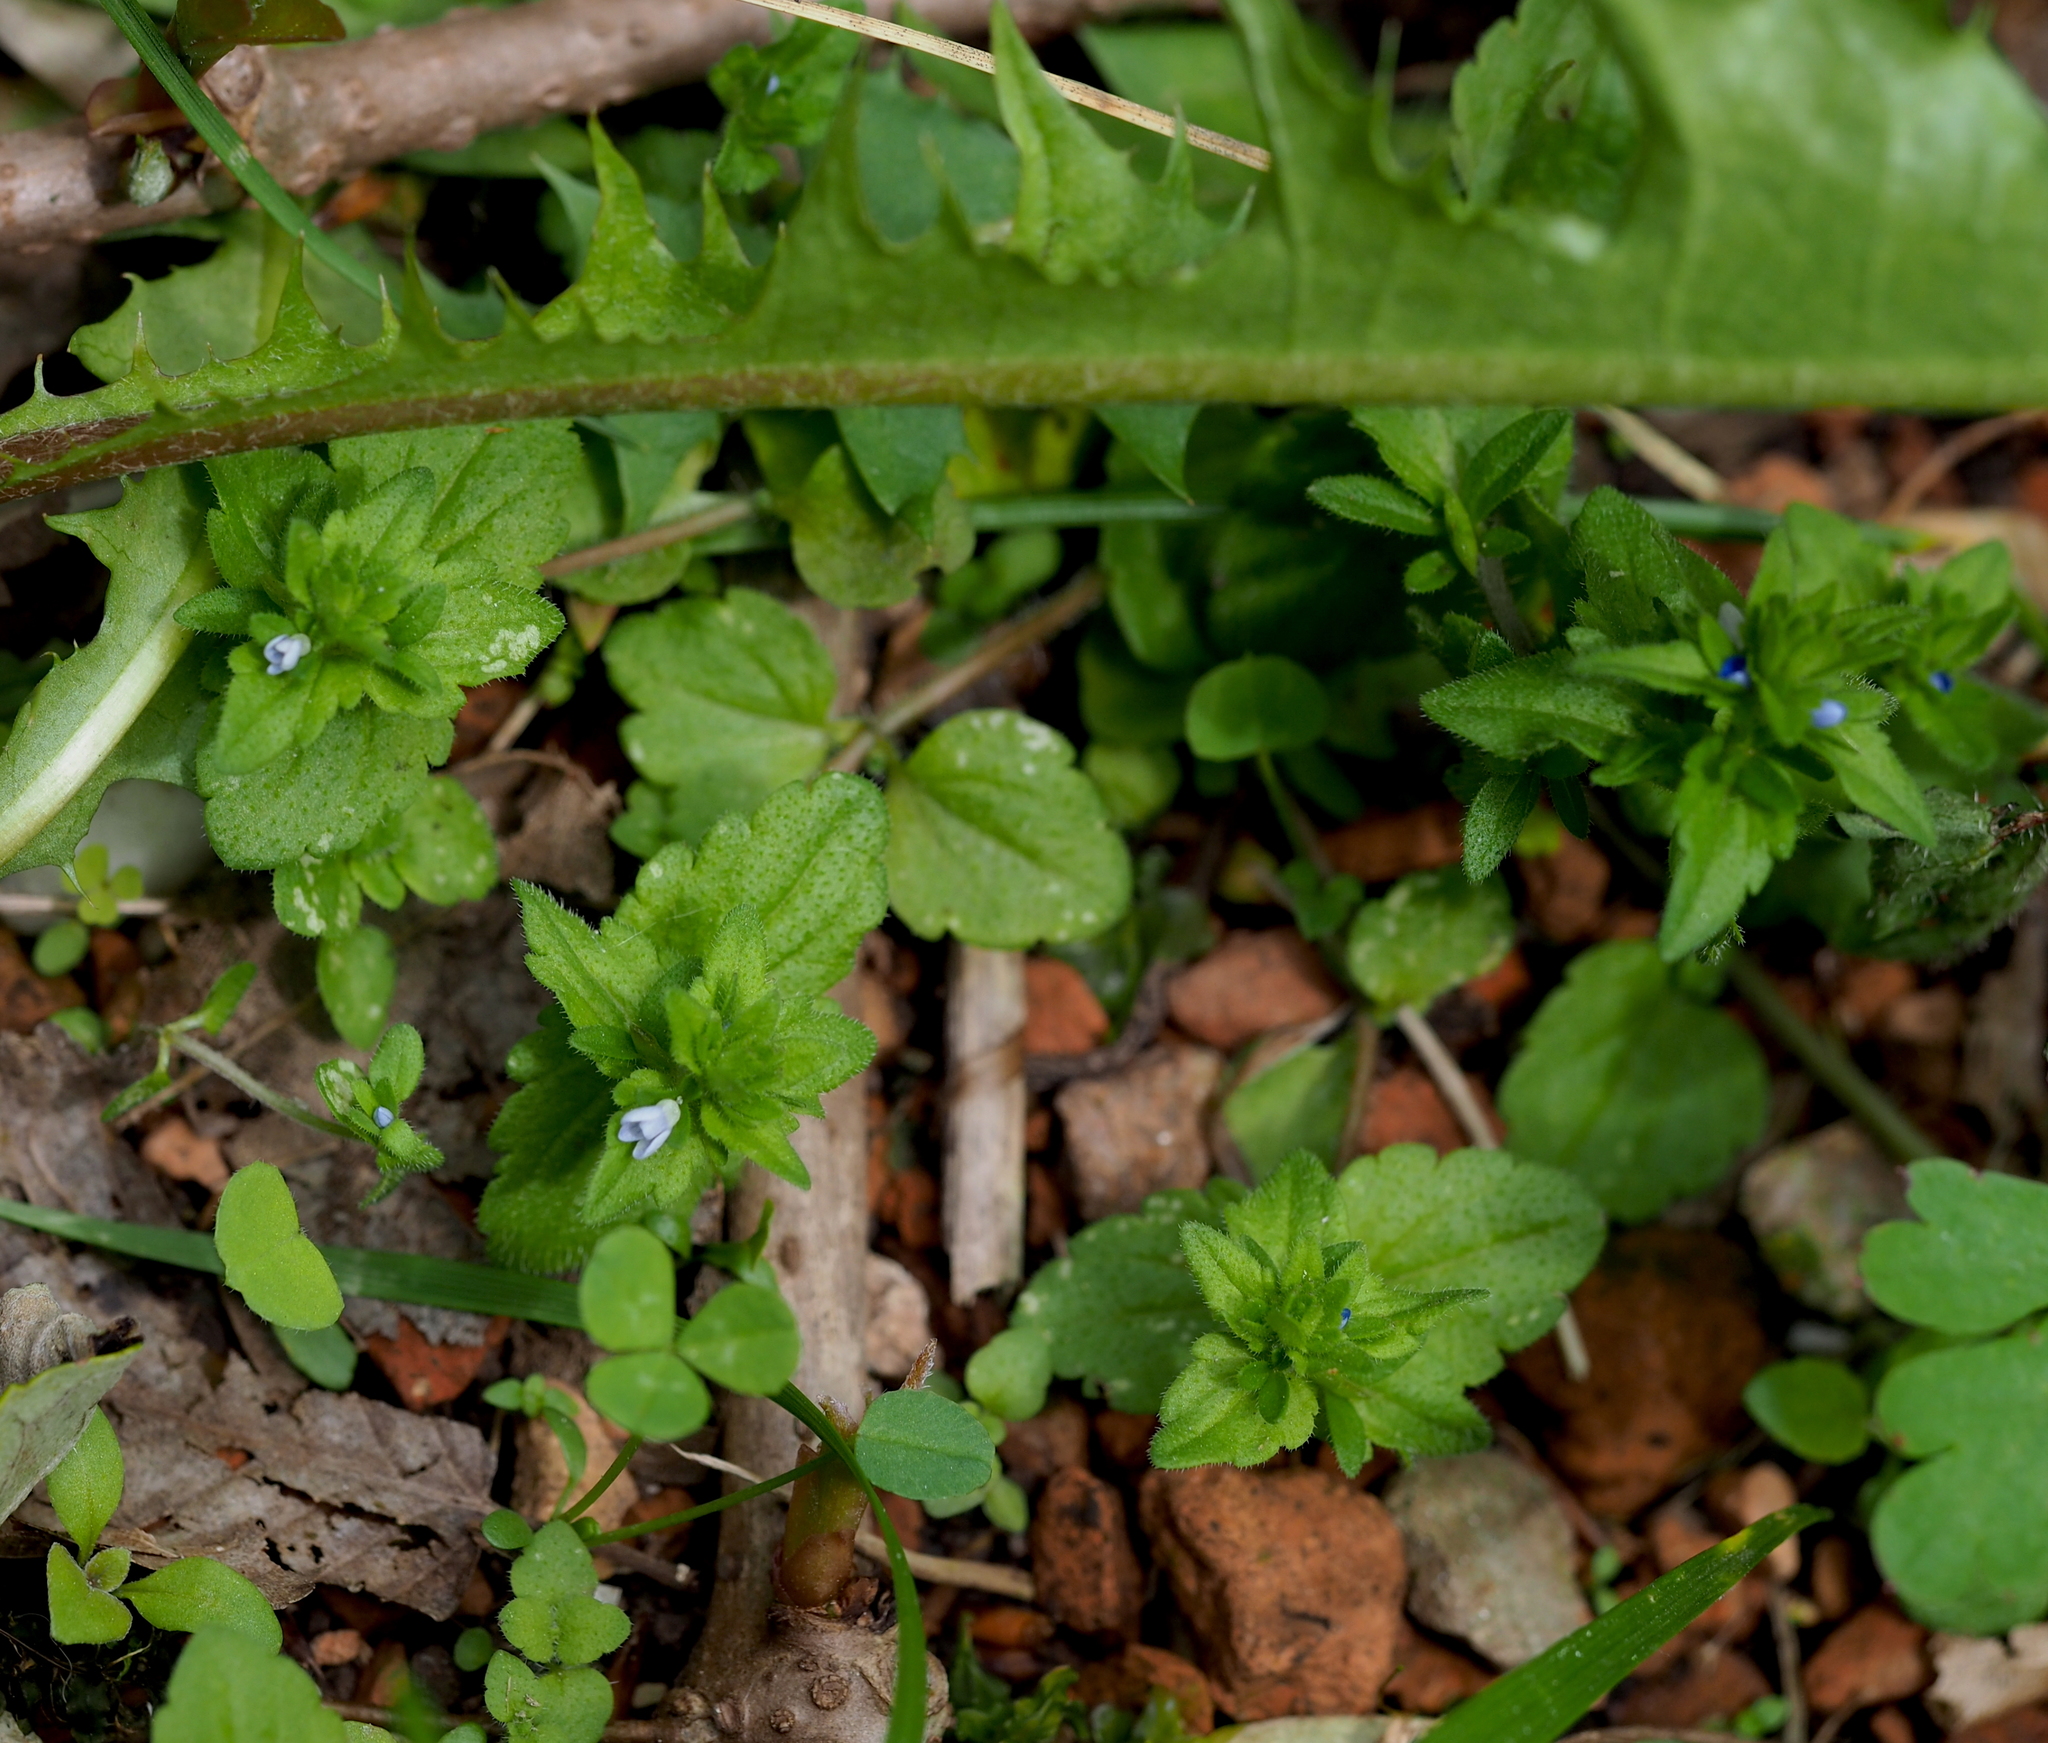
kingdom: Plantae
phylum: Tracheophyta
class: Magnoliopsida
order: Lamiales
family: Plantaginaceae
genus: Veronica
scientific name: Veronica arvensis
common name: Corn speedwell
